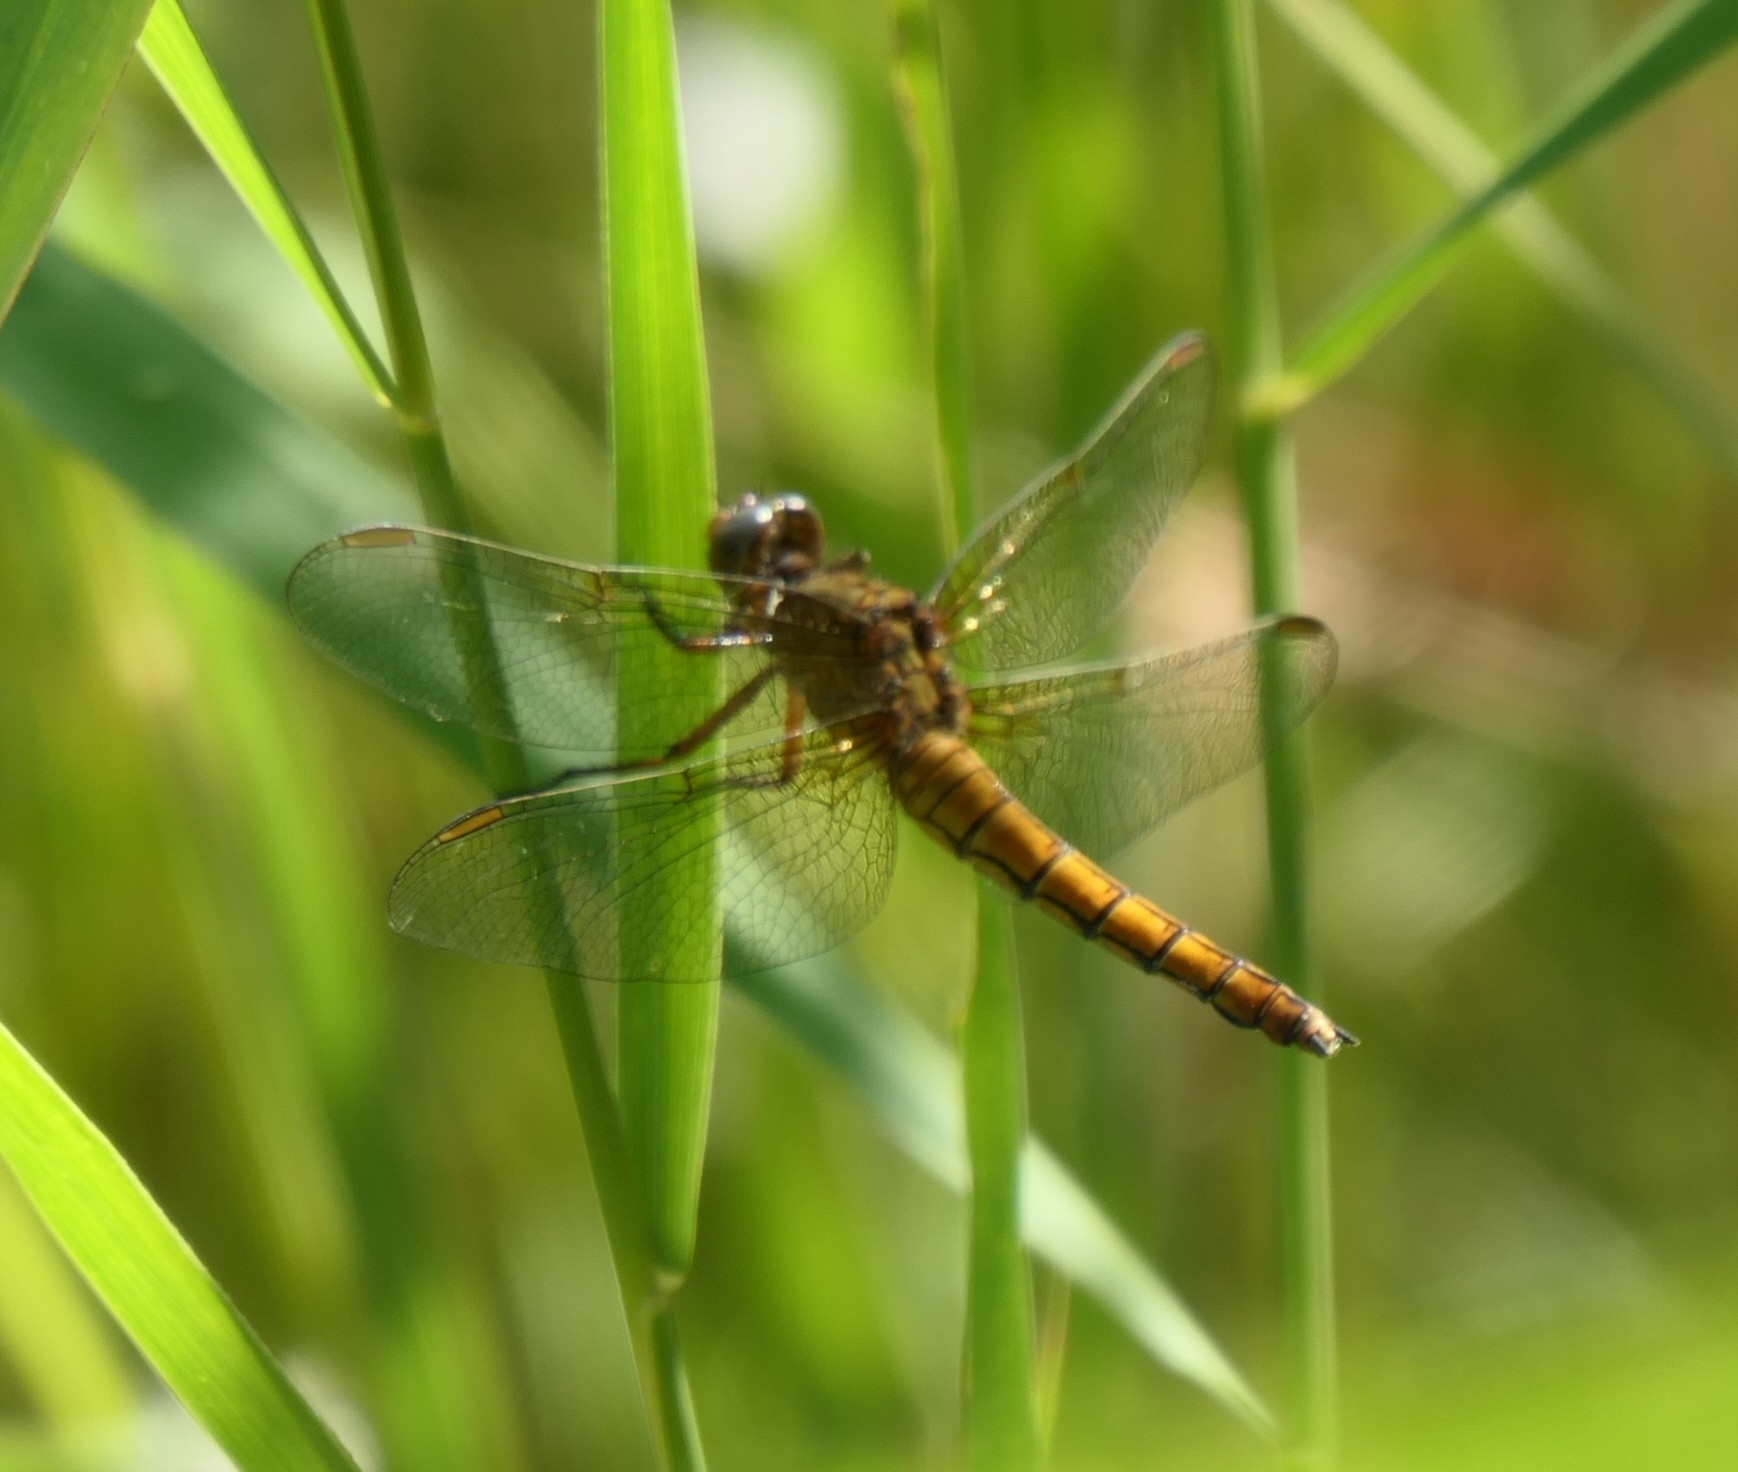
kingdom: Animalia
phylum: Arthropoda
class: Insecta
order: Odonata
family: Libellulidae
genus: Orthetrum
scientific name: Orthetrum coerulescens
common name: Keeled skimmer
